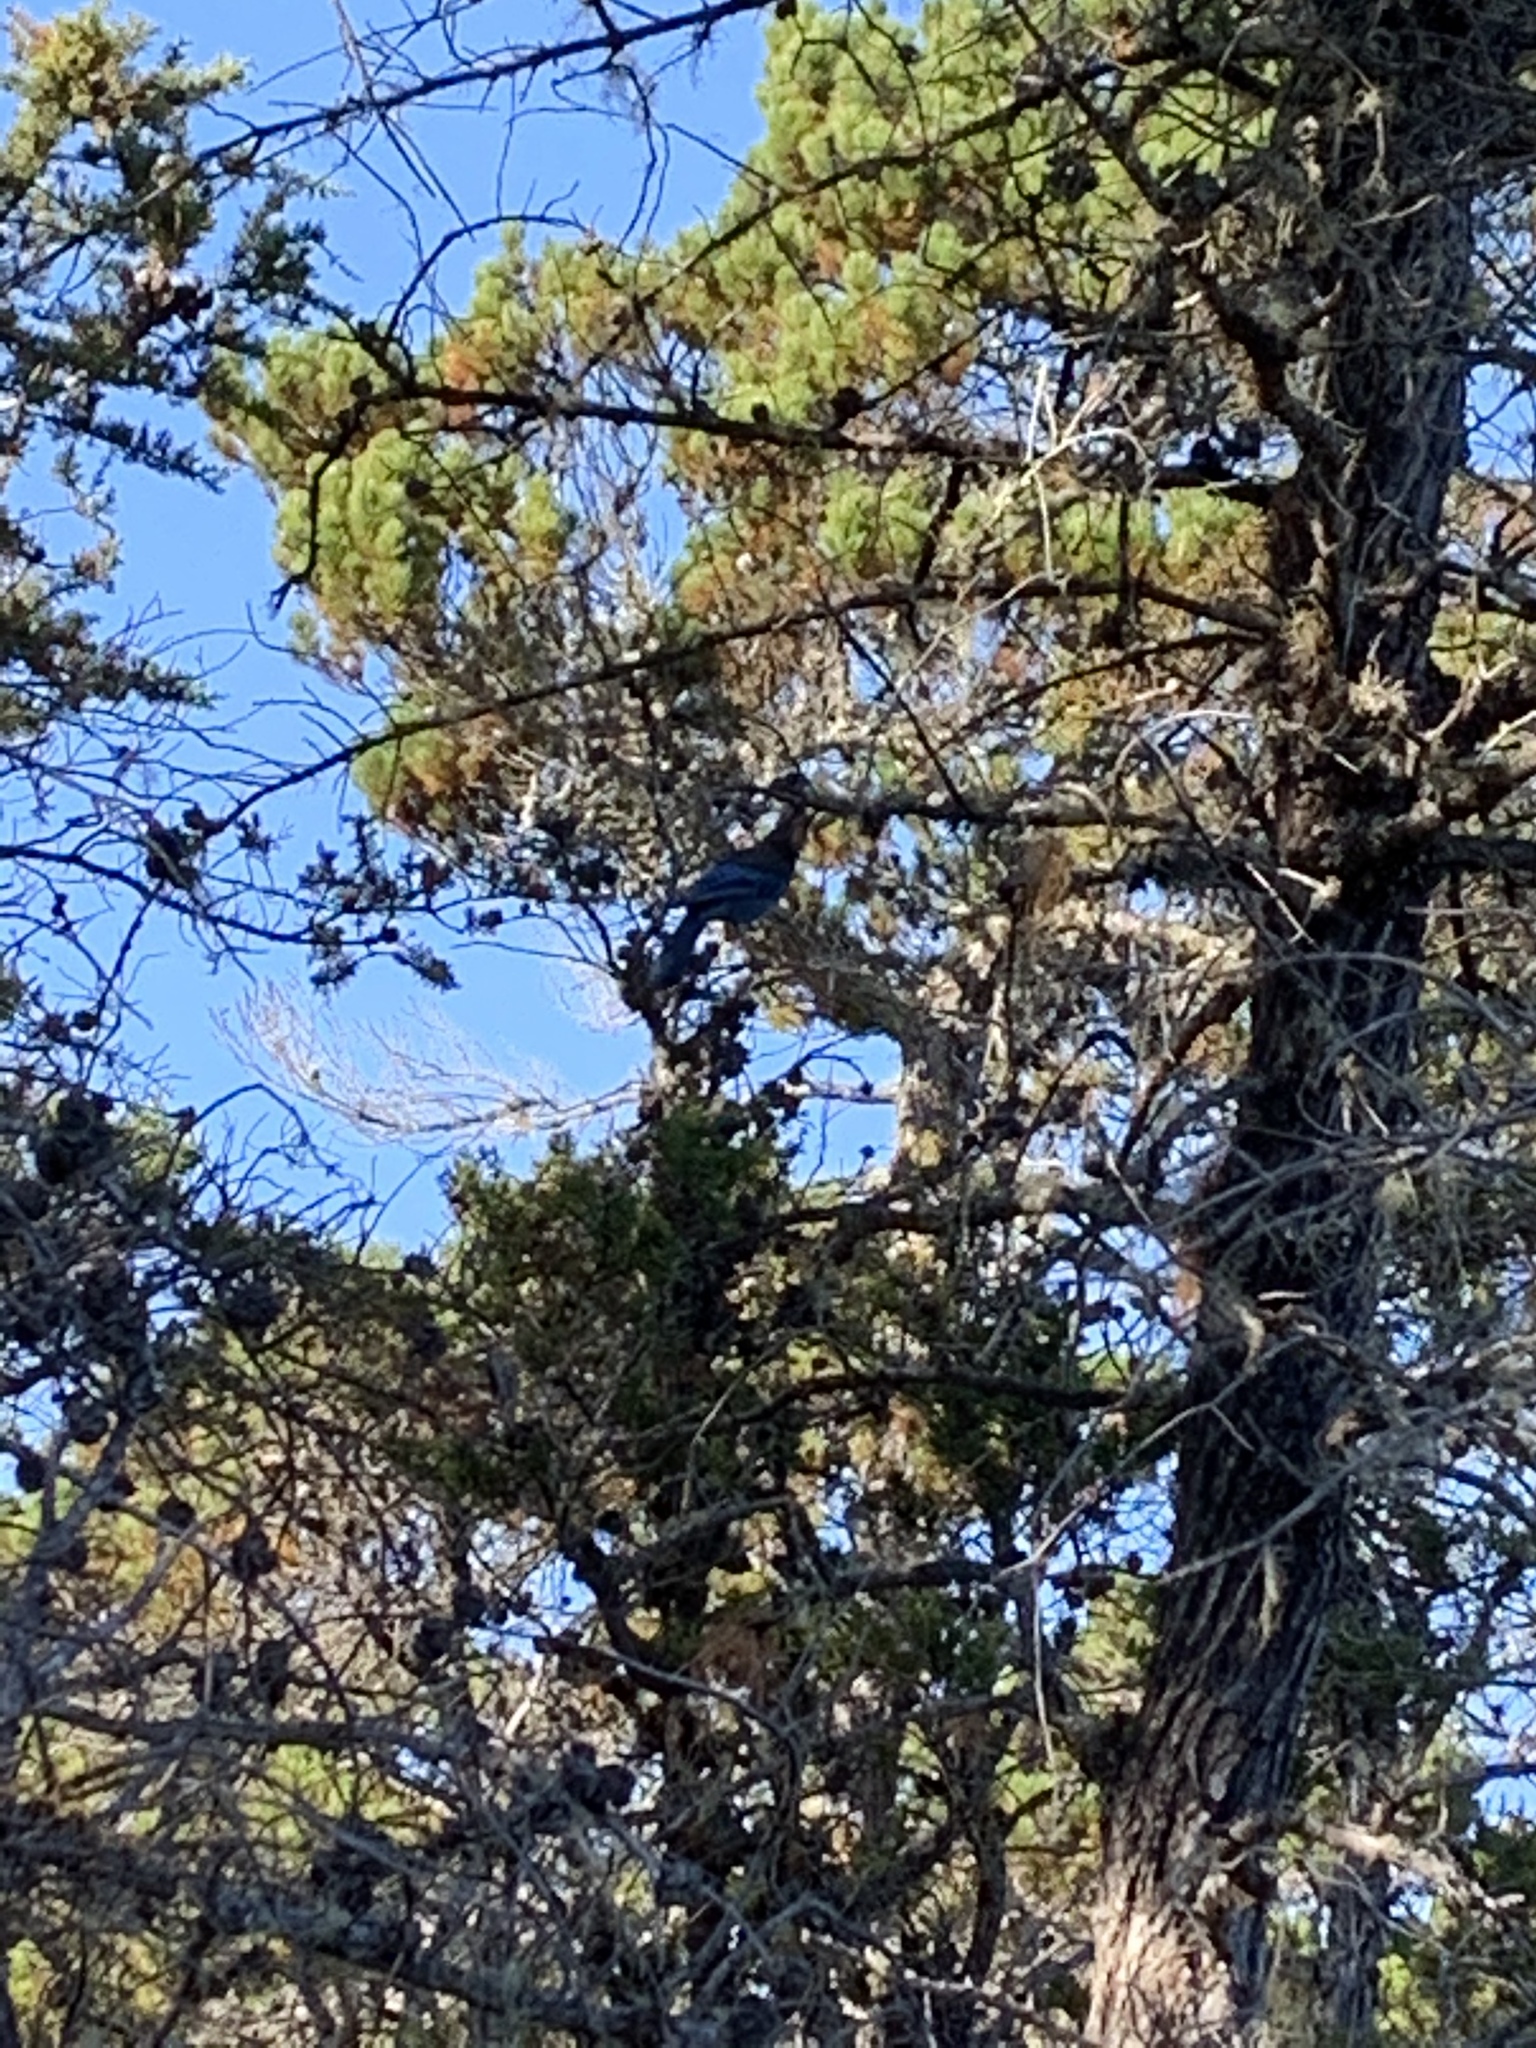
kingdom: Animalia
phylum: Chordata
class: Aves
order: Passeriformes
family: Corvidae
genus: Cyanocitta
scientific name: Cyanocitta stelleri
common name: Steller's jay
